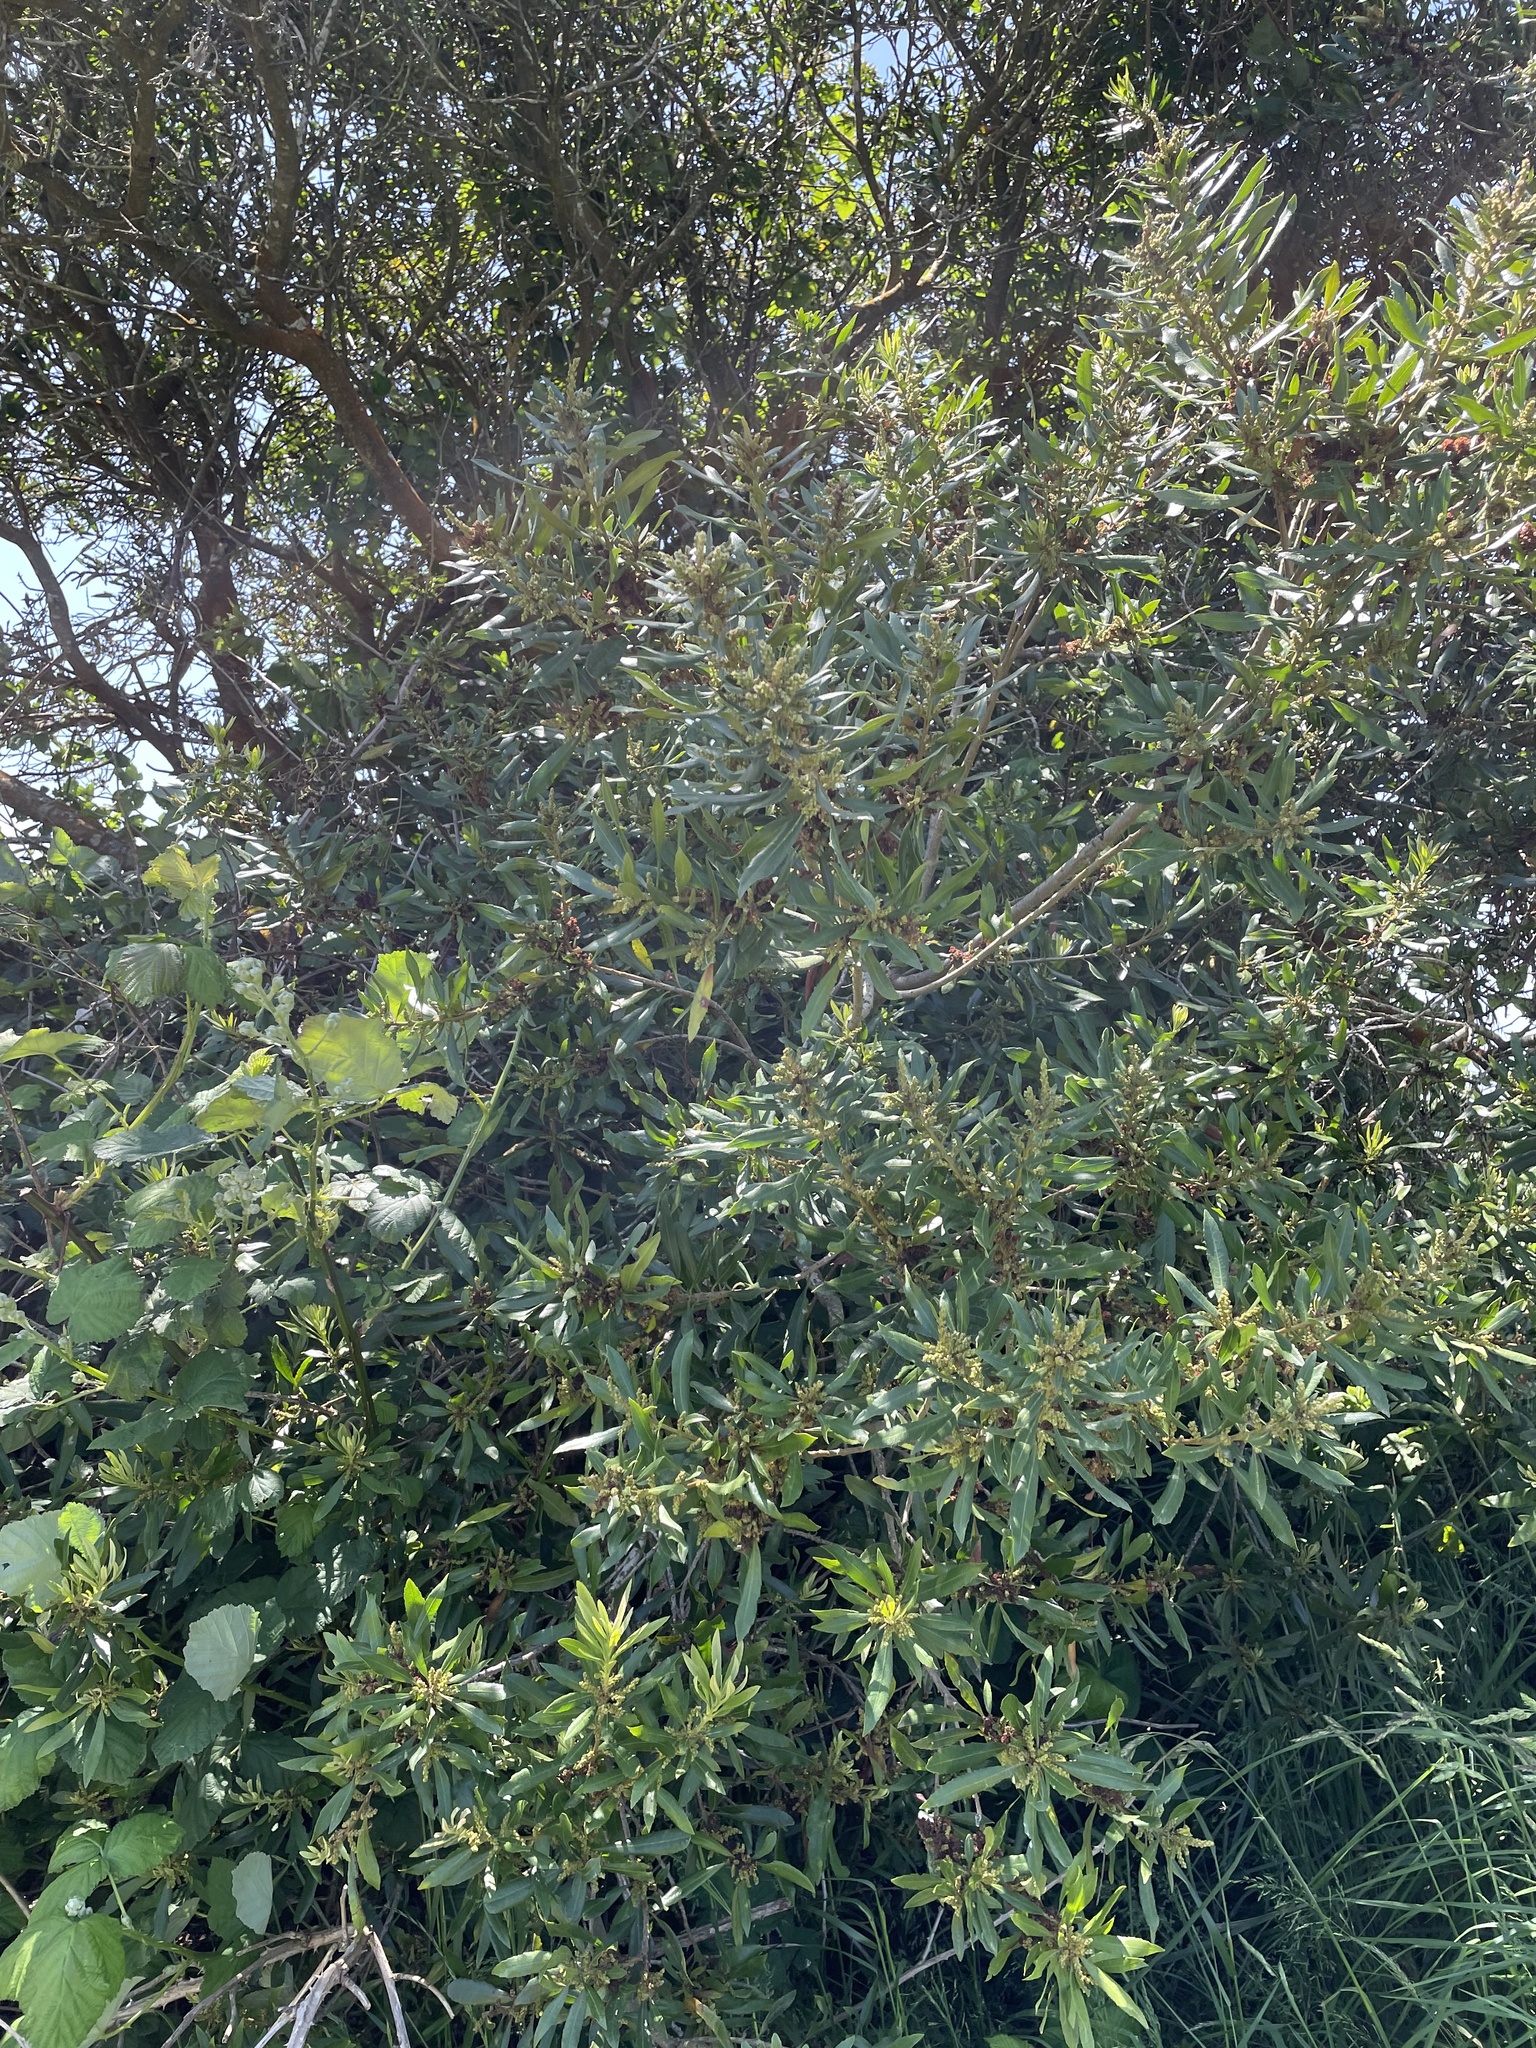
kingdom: Plantae
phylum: Tracheophyta
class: Magnoliopsida
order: Fagales
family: Myricaceae
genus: Morella
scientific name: Morella californica
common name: California wax-myrtle
